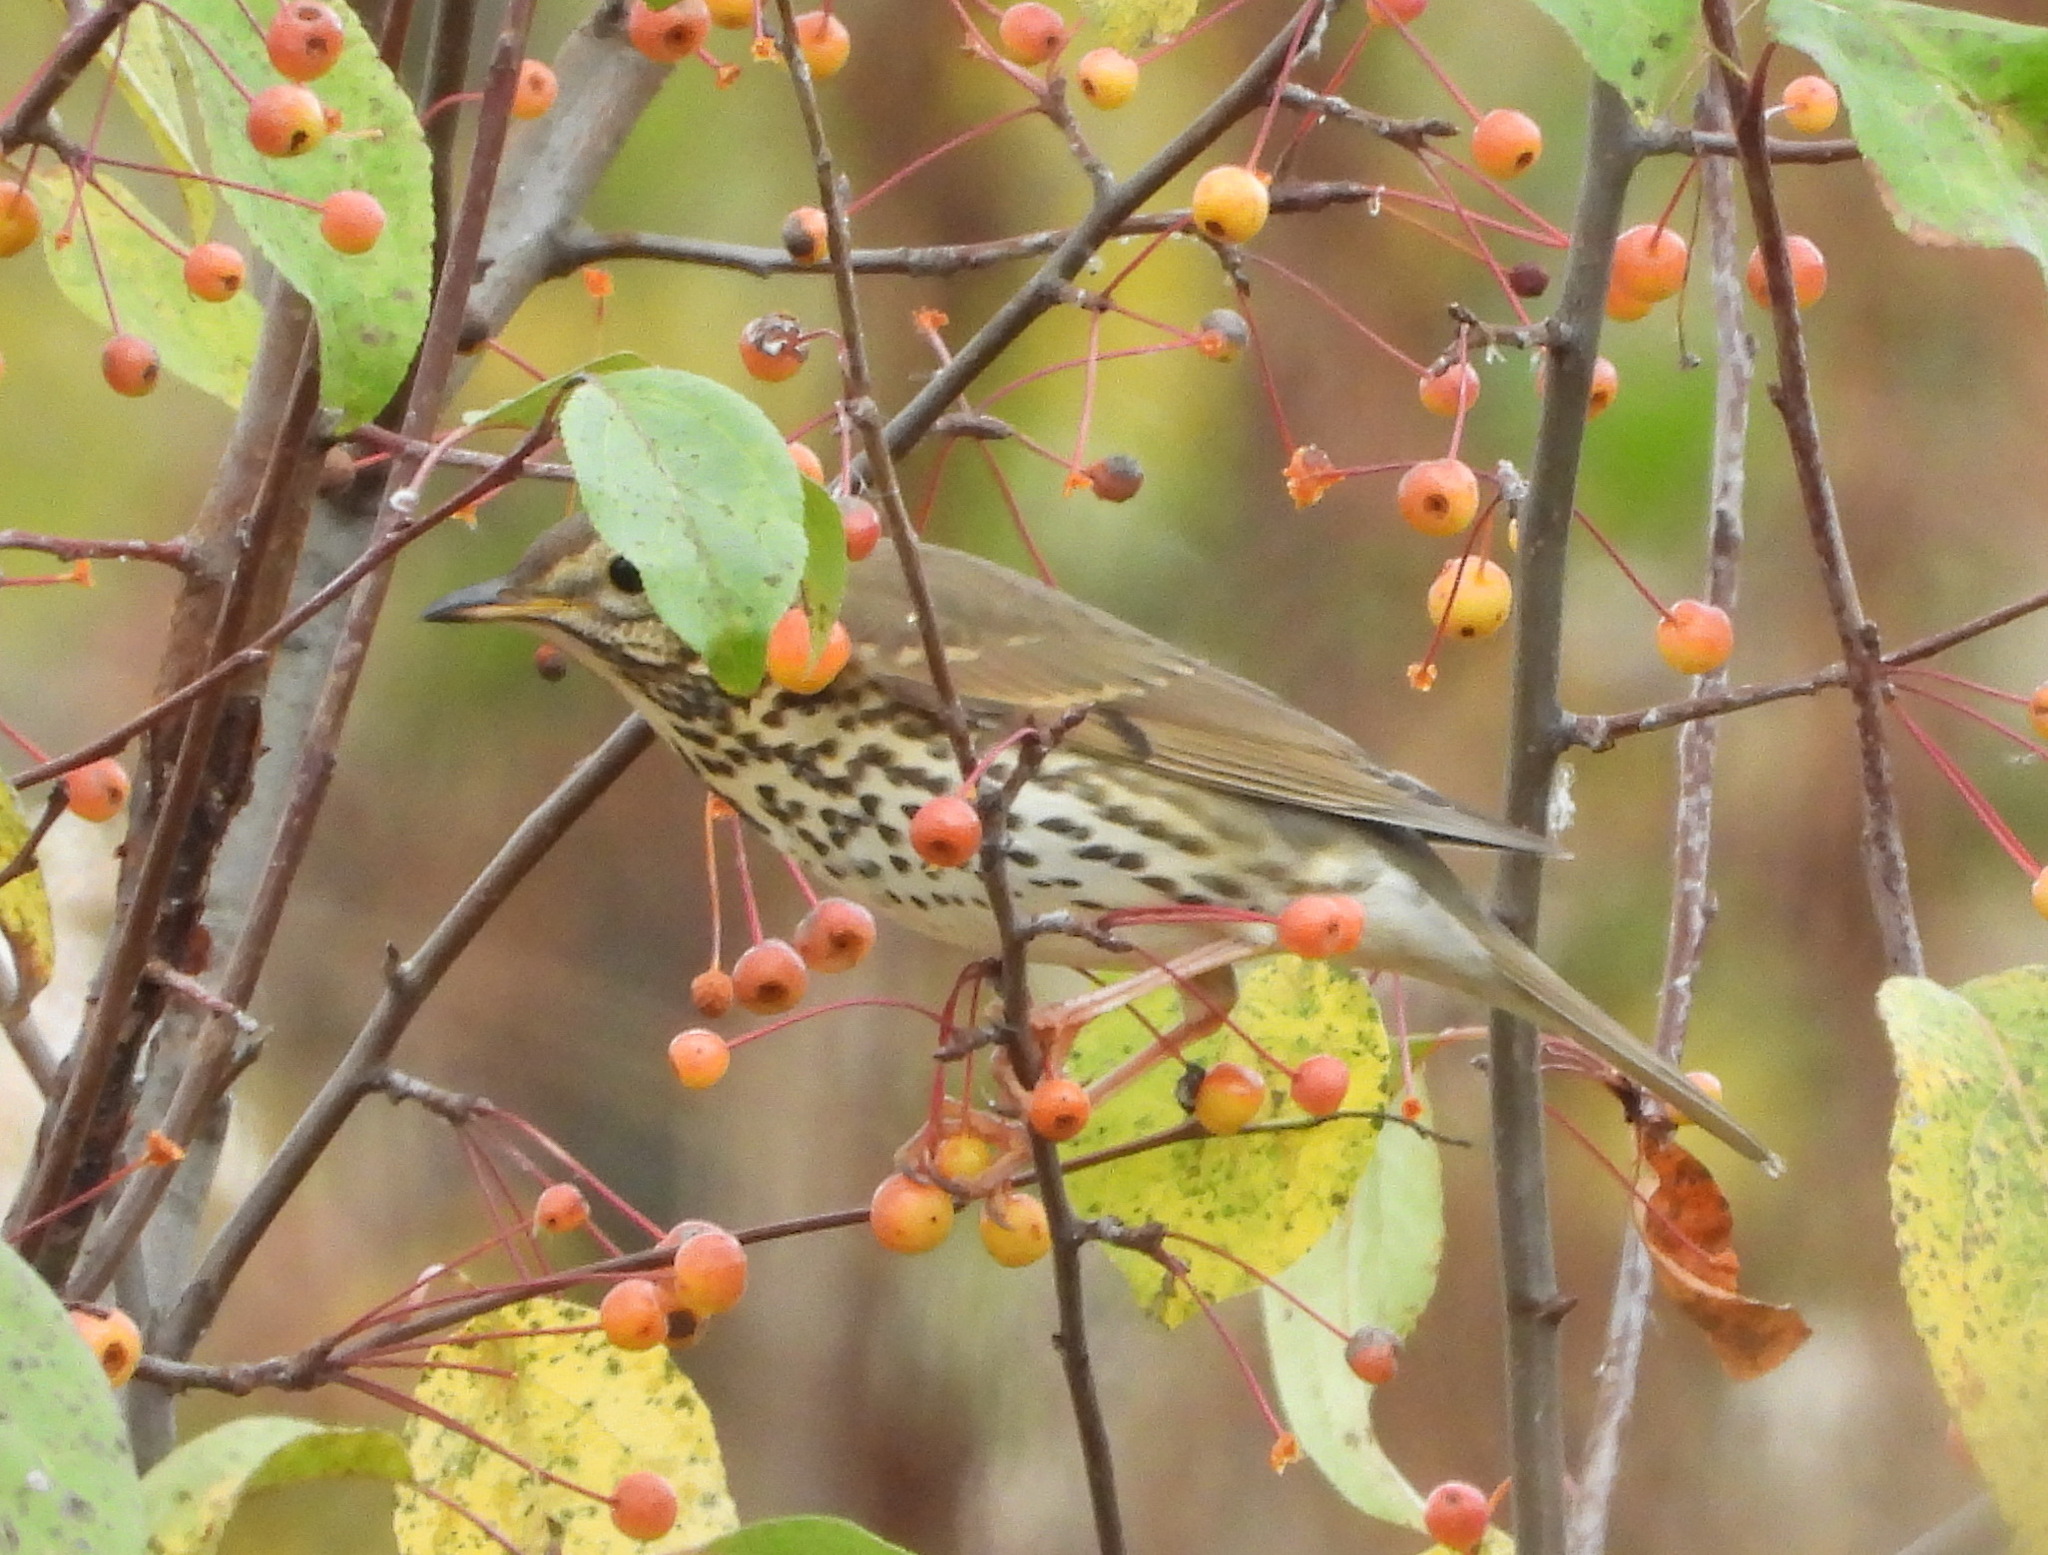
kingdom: Animalia
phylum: Chordata
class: Aves
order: Passeriformes
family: Turdidae
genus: Turdus
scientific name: Turdus philomelos
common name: Song thrush
